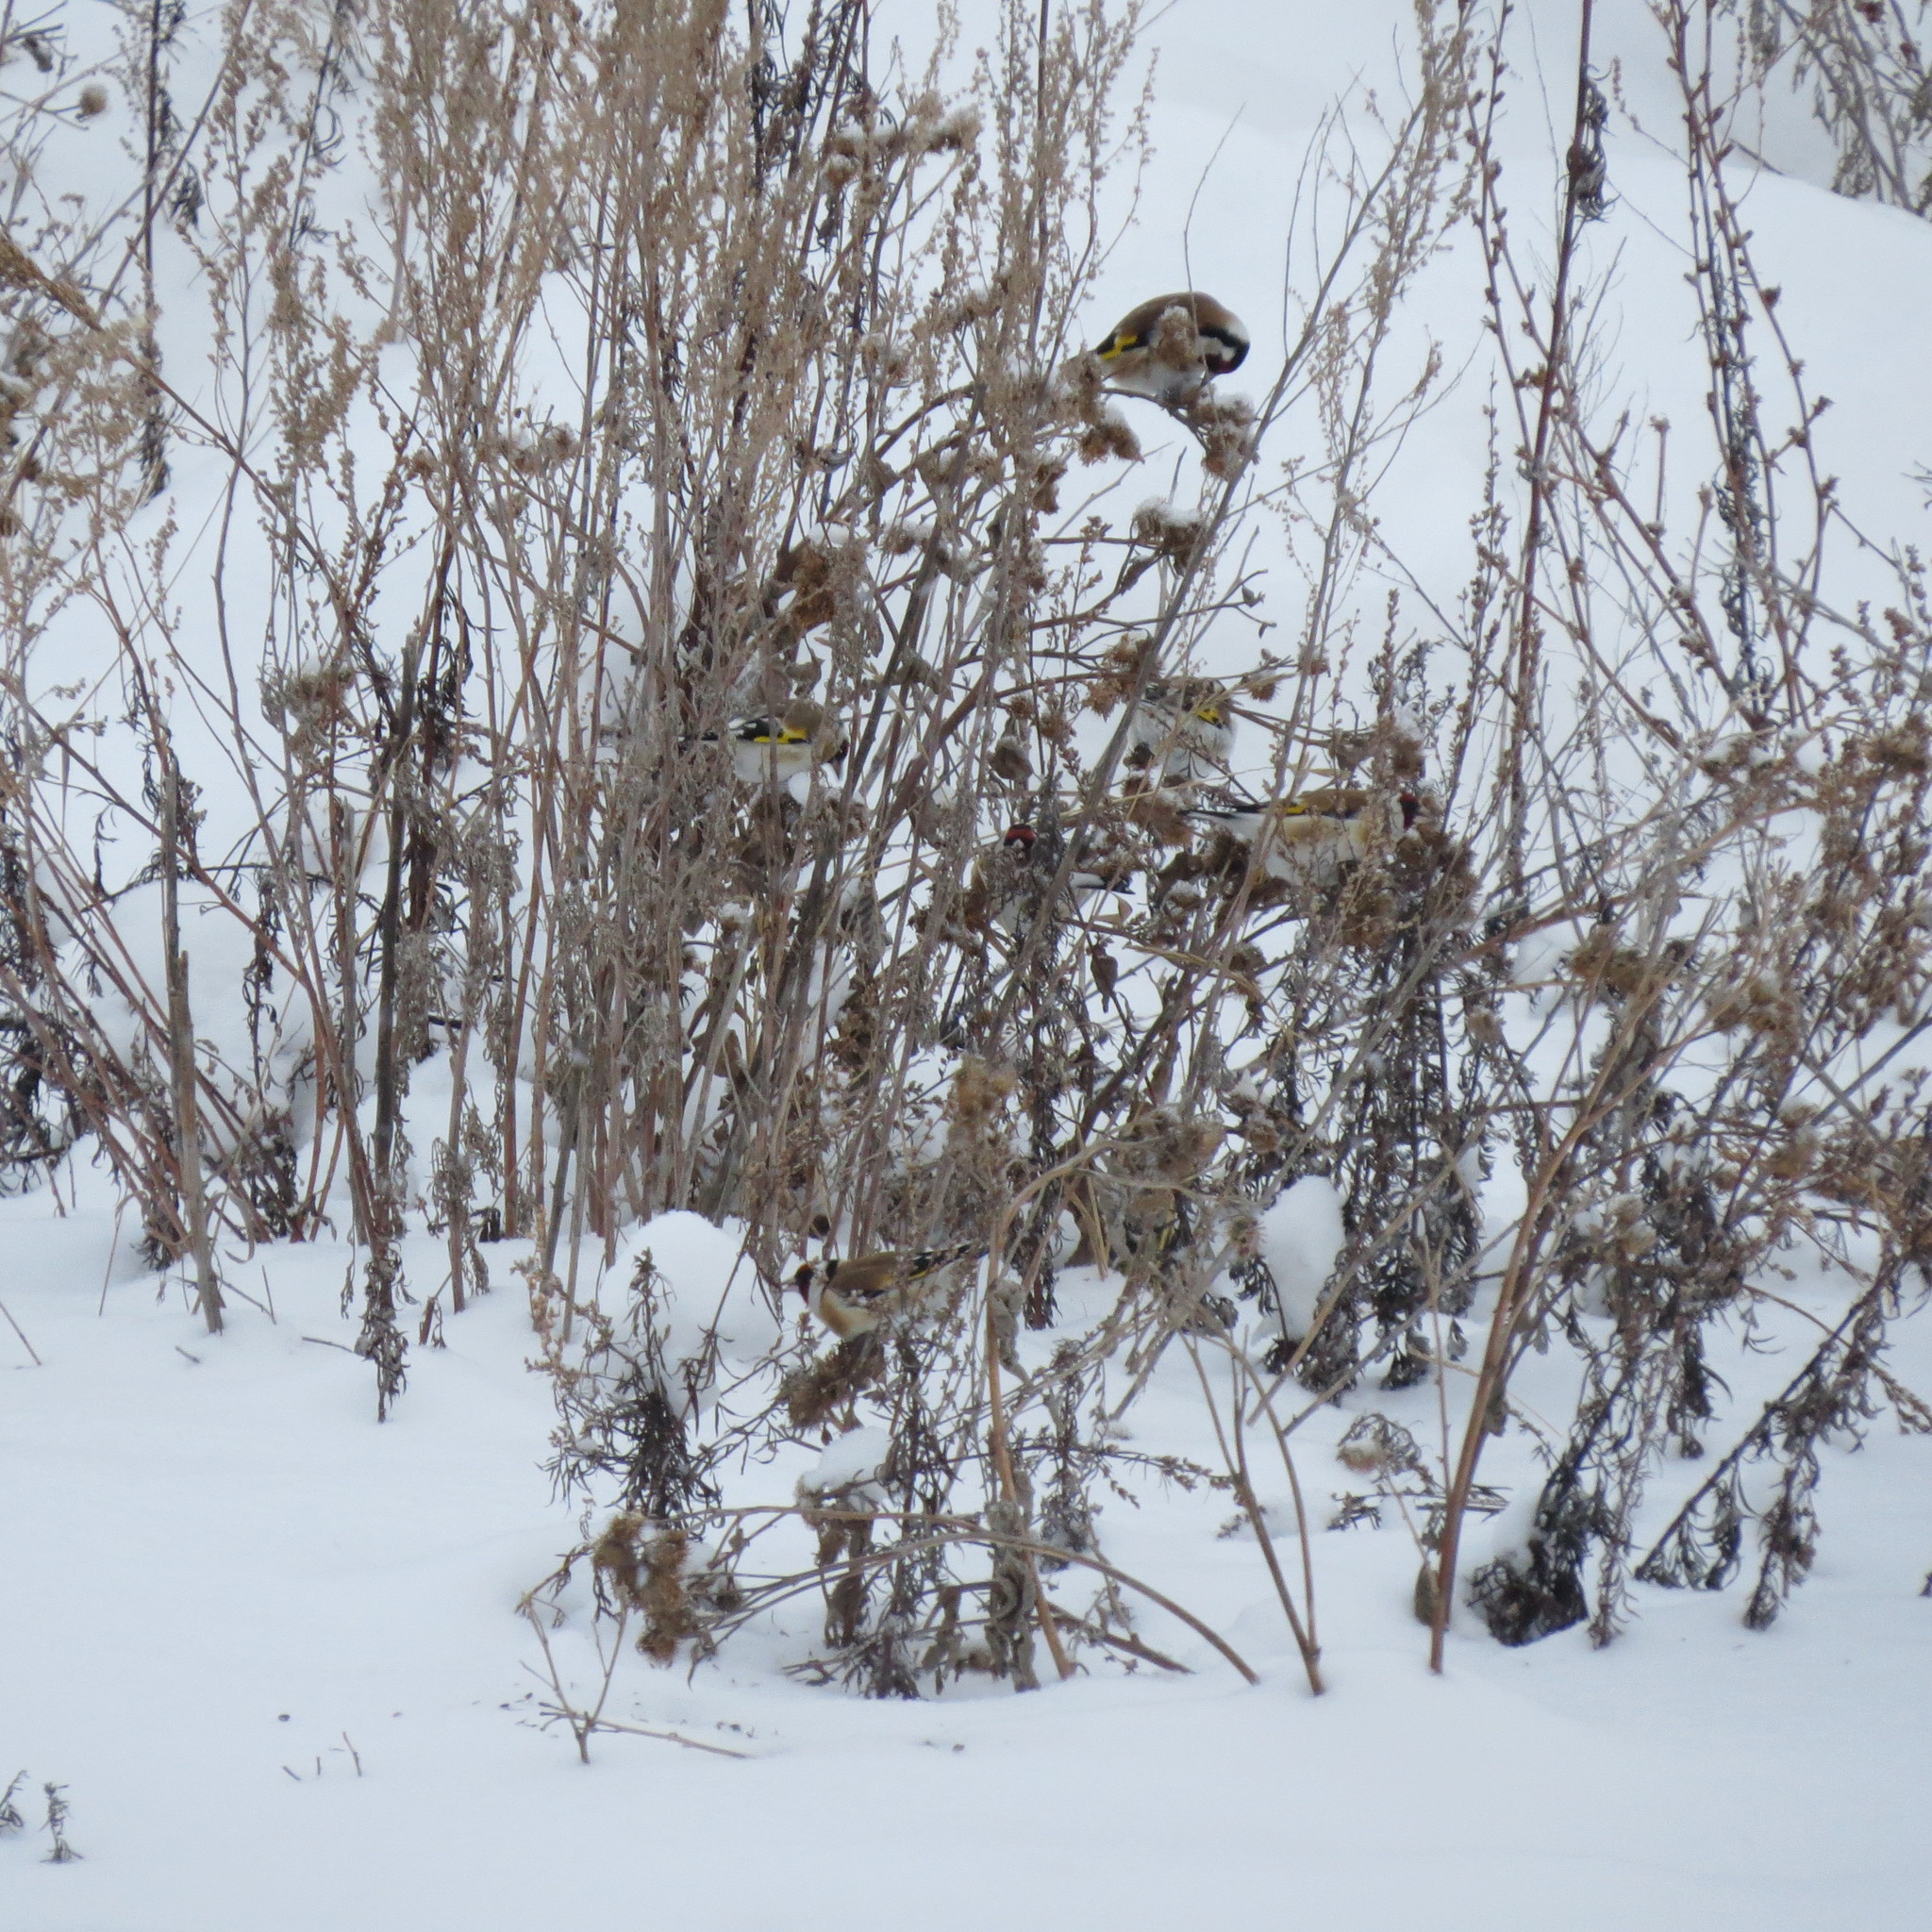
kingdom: Animalia
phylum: Chordata
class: Aves
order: Passeriformes
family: Fringillidae
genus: Carduelis
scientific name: Carduelis carduelis
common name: European goldfinch
